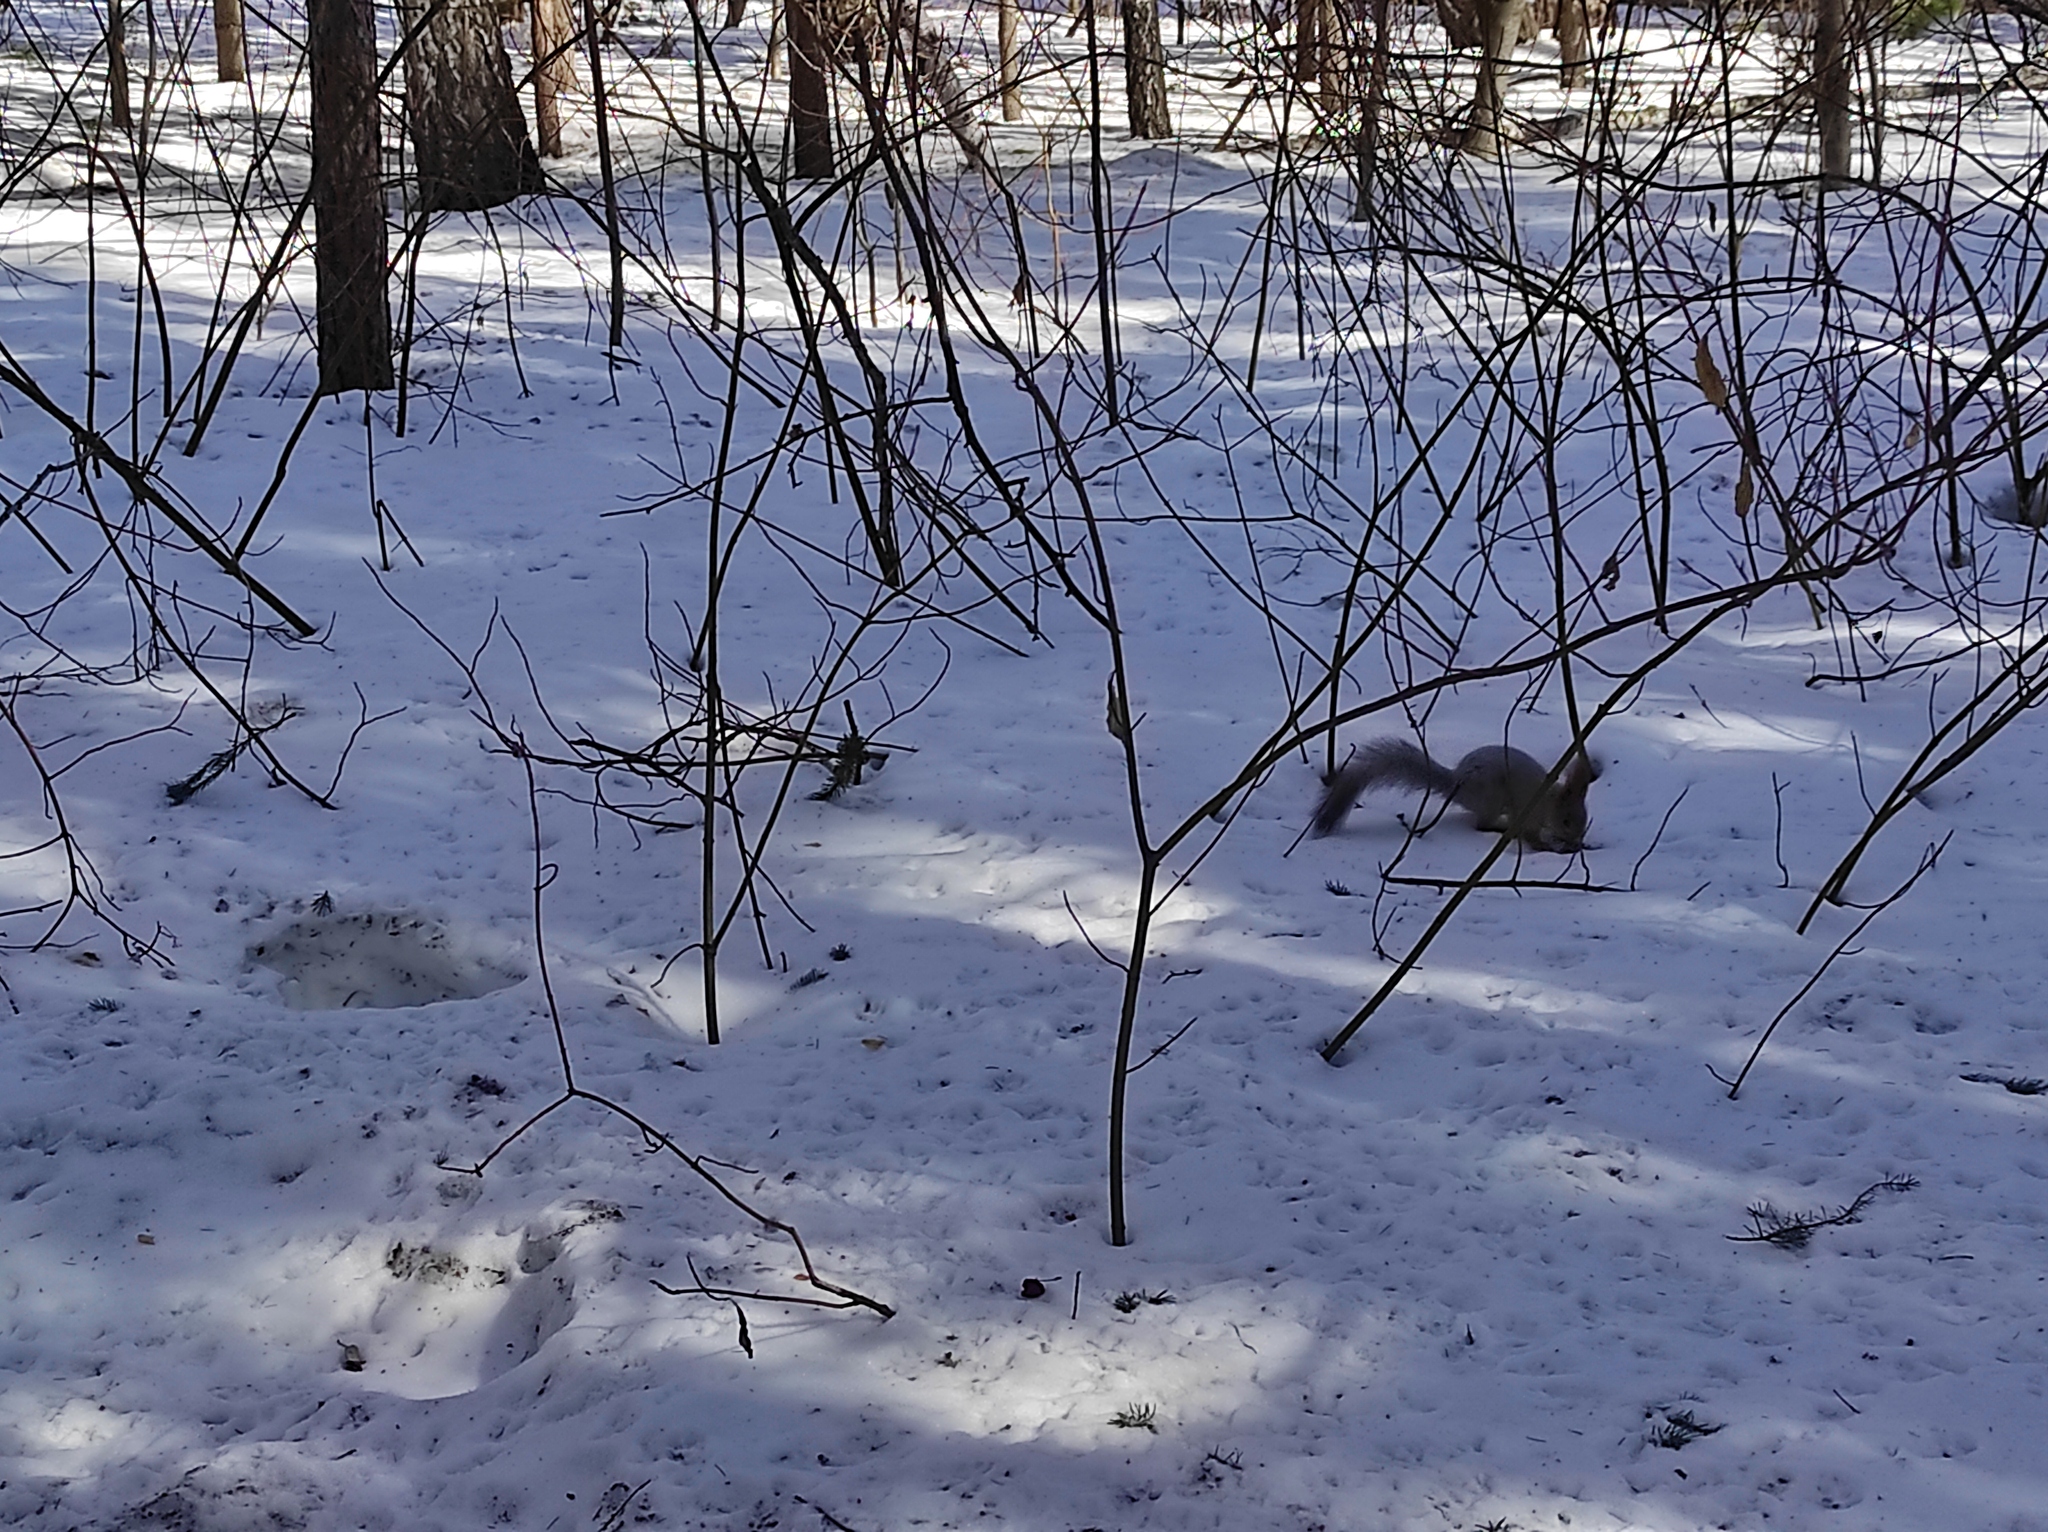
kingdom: Animalia
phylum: Chordata
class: Mammalia
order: Rodentia
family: Sciuridae
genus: Sciurus
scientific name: Sciurus vulgaris
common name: Eurasian red squirrel
